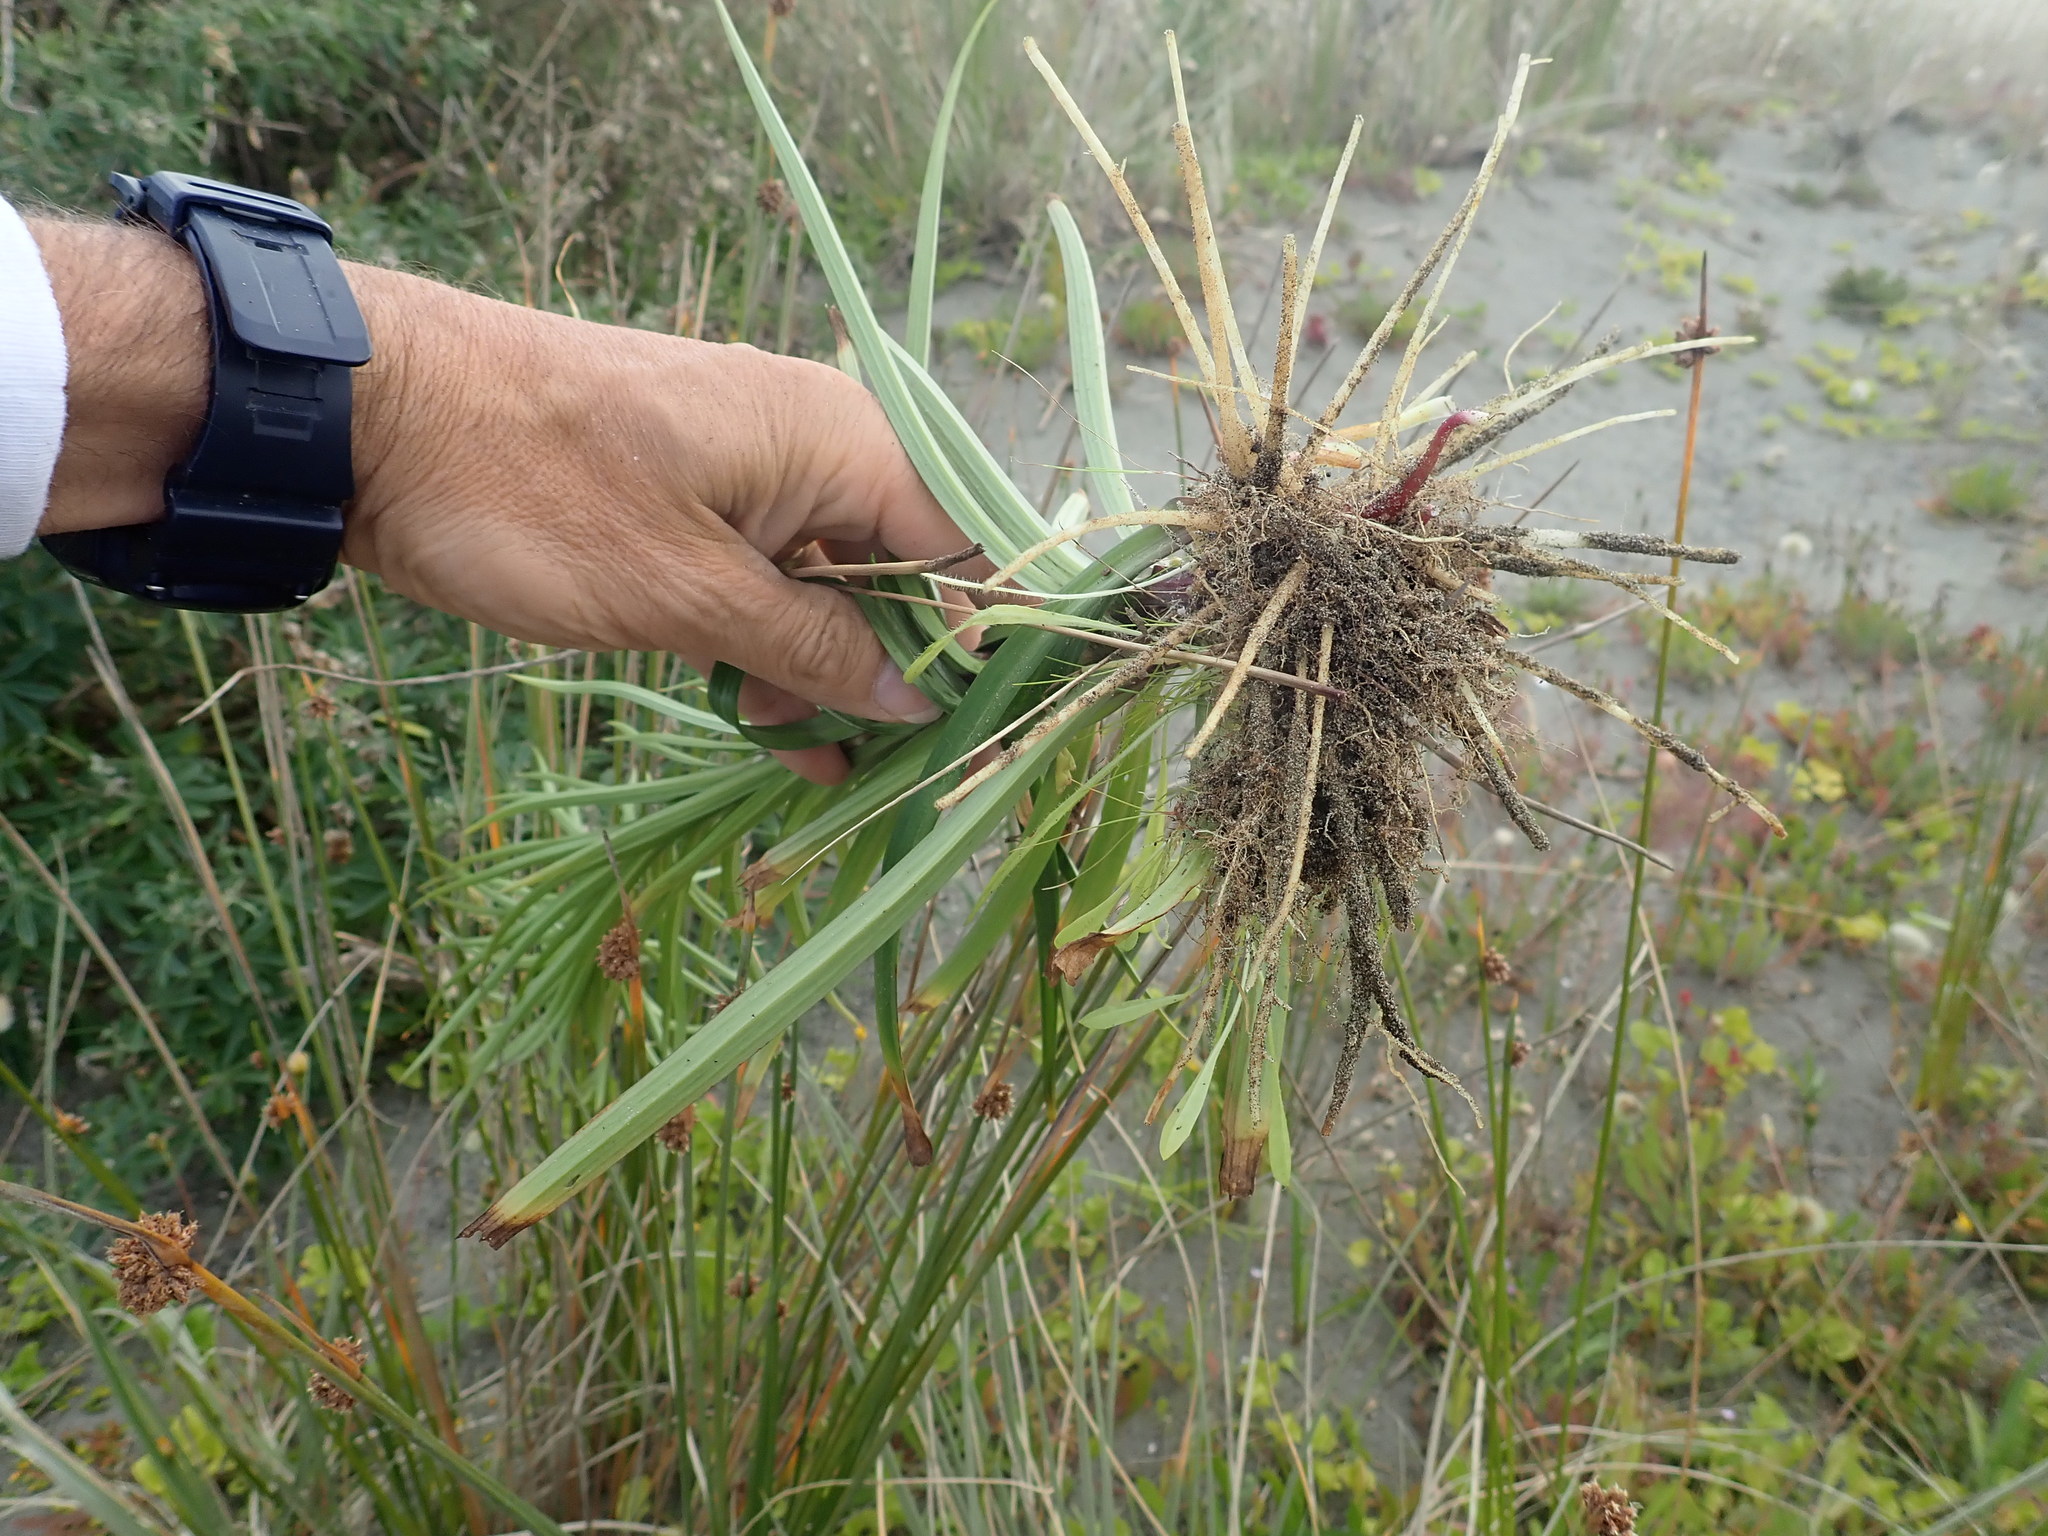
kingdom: Plantae
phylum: Tracheophyta
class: Liliopsida
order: Liliales
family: Liliaceae
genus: Lilium
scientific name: Lilium formosanum
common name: Formosa lily
